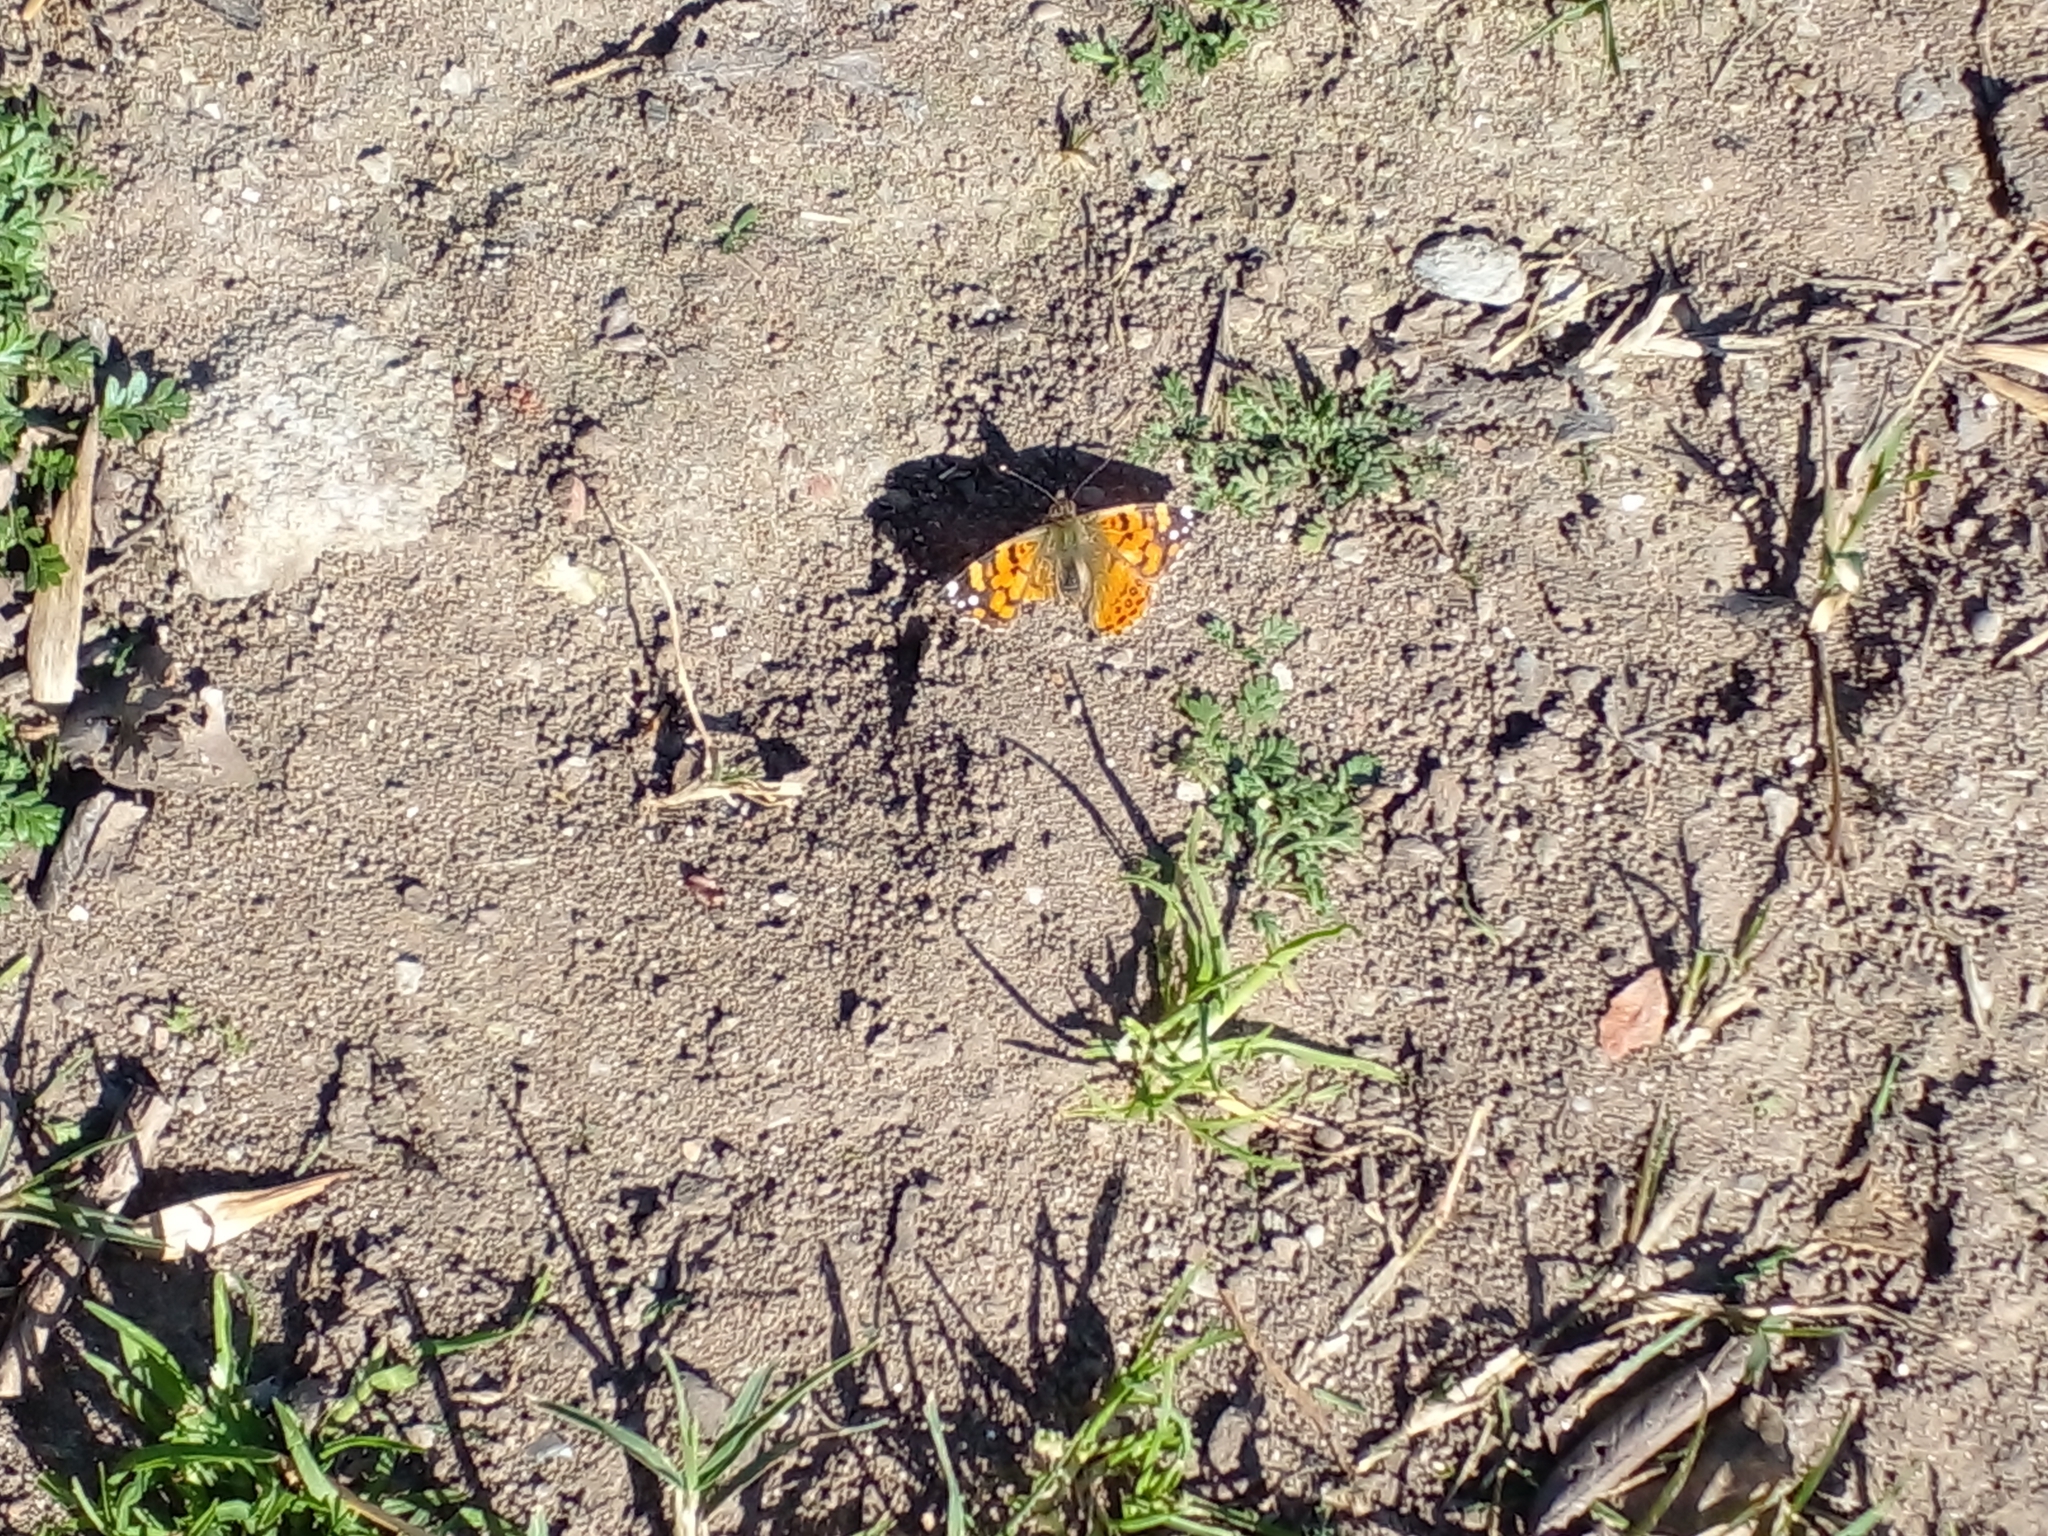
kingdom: Animalia
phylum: Arthropoda
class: Insecta
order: Lepidoptera
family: Nymphalidae
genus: Vanessa
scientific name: Vanessa carye
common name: Subtropical lady
